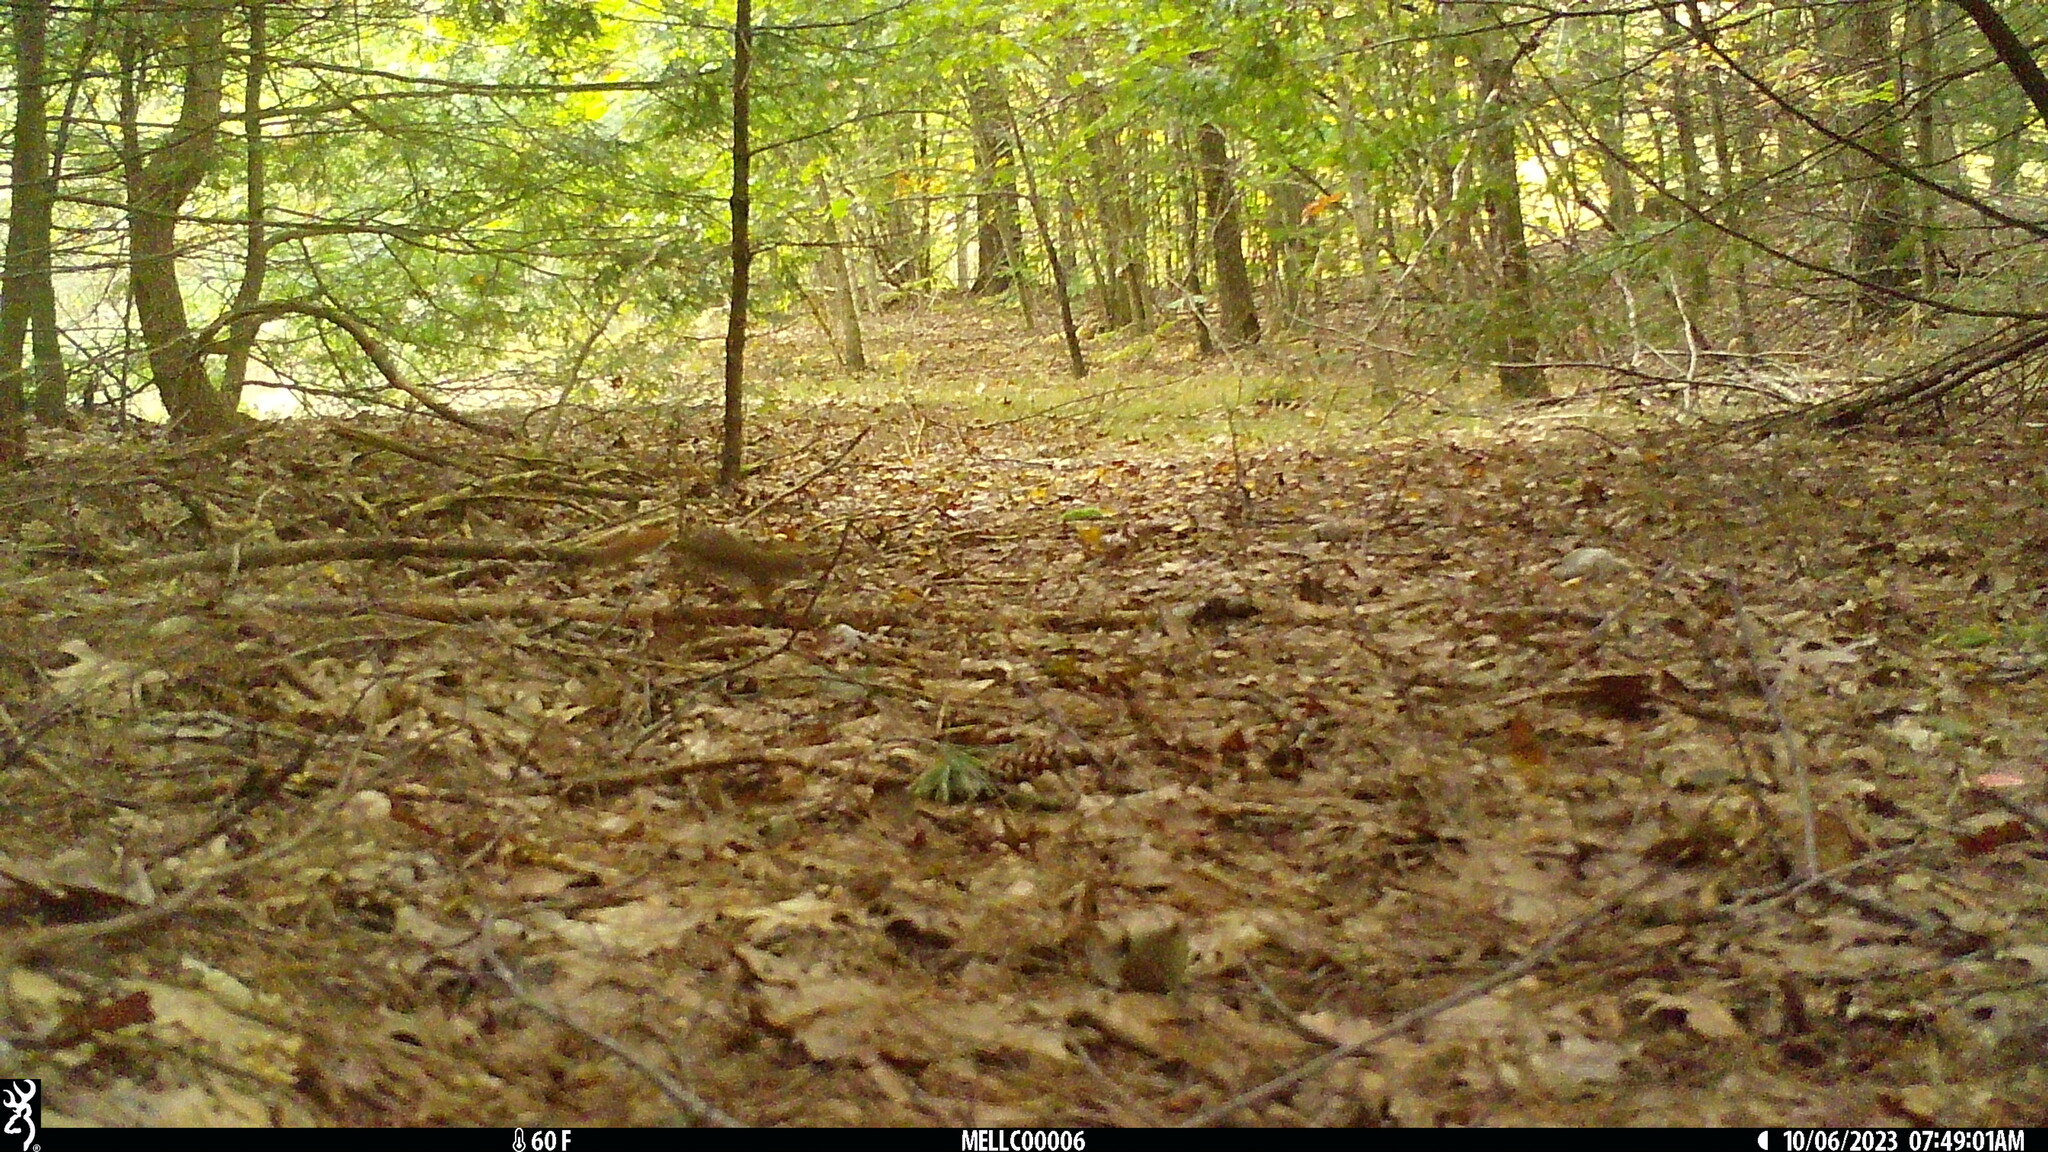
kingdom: Animalia
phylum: Chordata
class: Mammalia
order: Rodentia
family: Sciuridae
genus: Tamiasciurus
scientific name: Tamiasciurus hudsonicus
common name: Red squirrel
